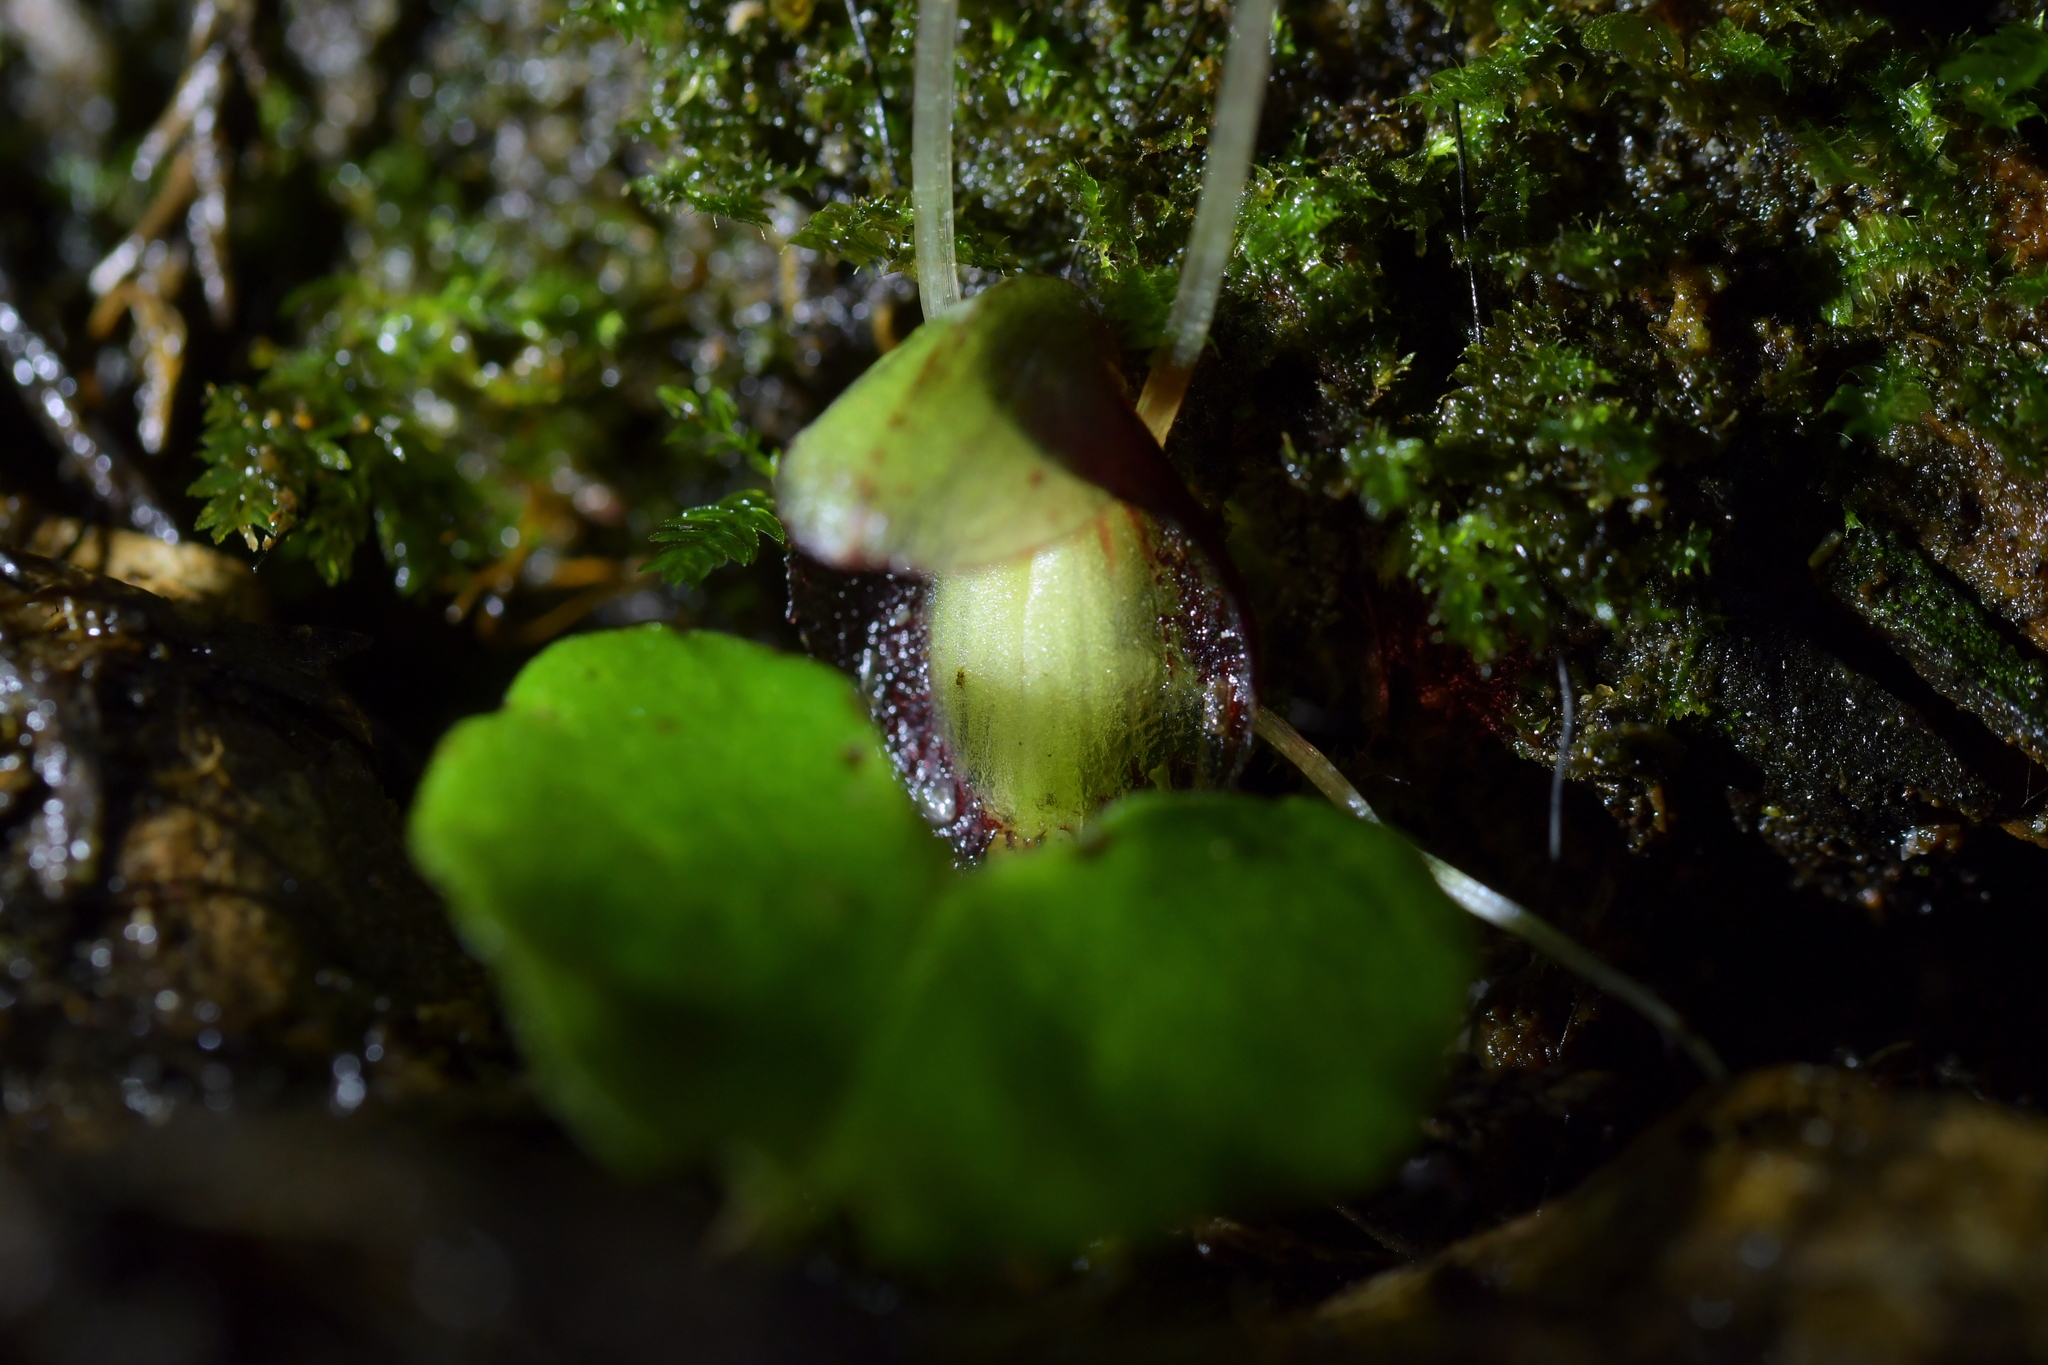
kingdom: Plantae
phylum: Tracheophyta
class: Liliopsida
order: Asparagales
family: Orchidaceae
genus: Corybas
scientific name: Corybas sanctigeorgianus
